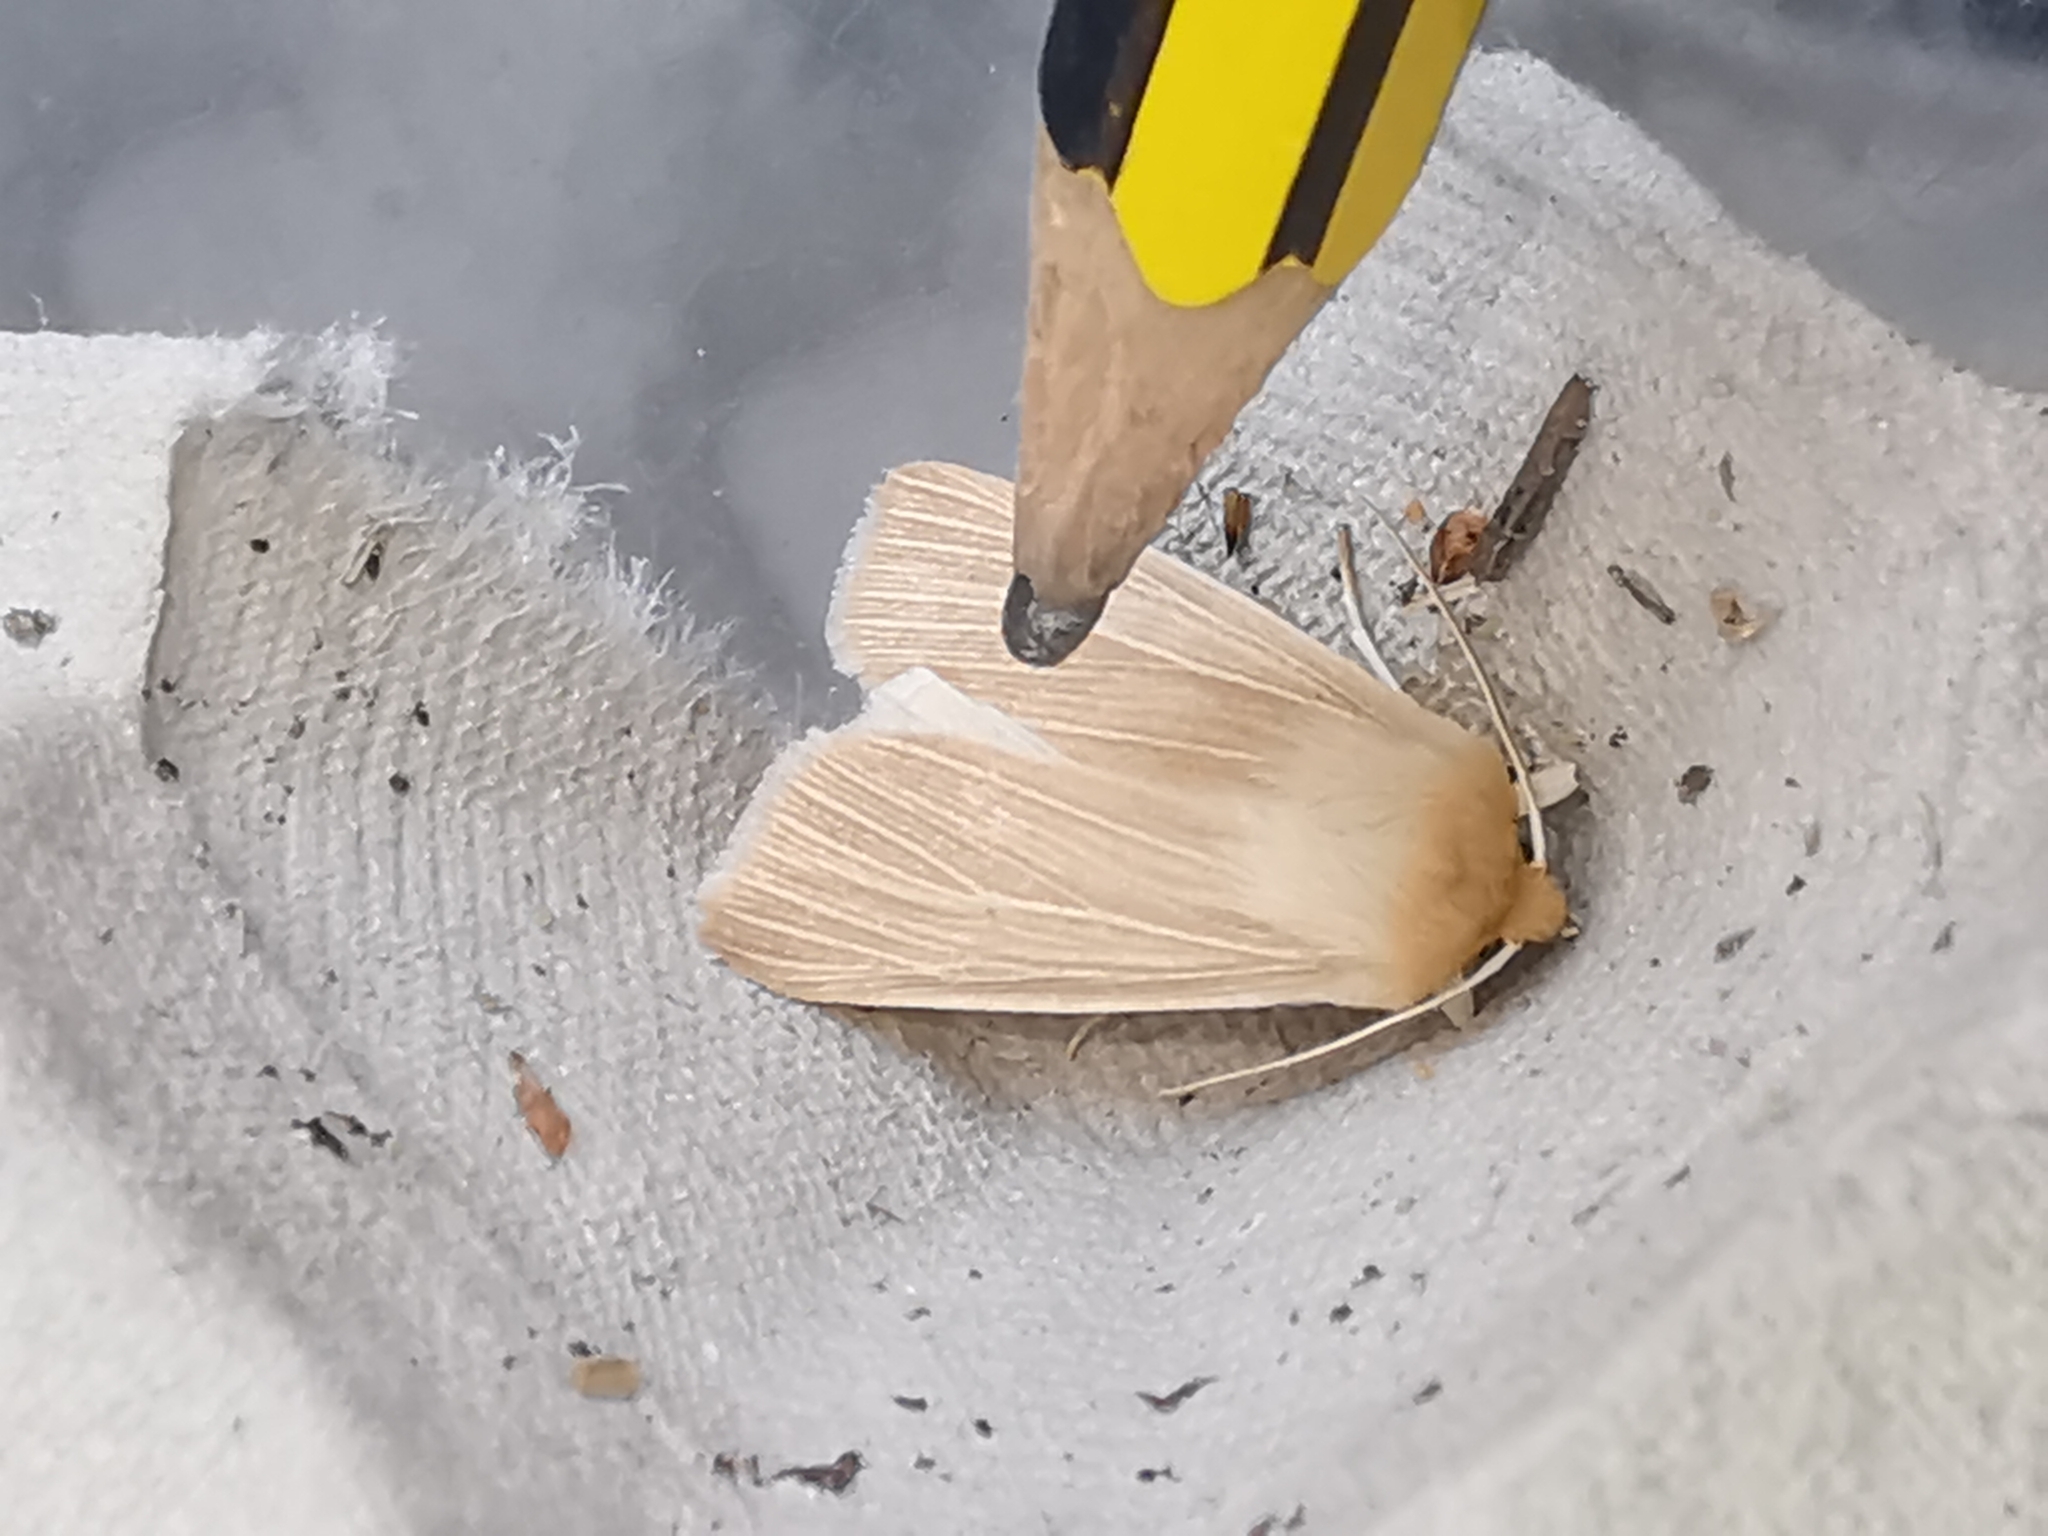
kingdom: Animalia
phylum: Arthropoda
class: Insecta
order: Lepidoptera
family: Noctuidae
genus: Mythimna
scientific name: Mythimna pallens
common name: Common wainscot
